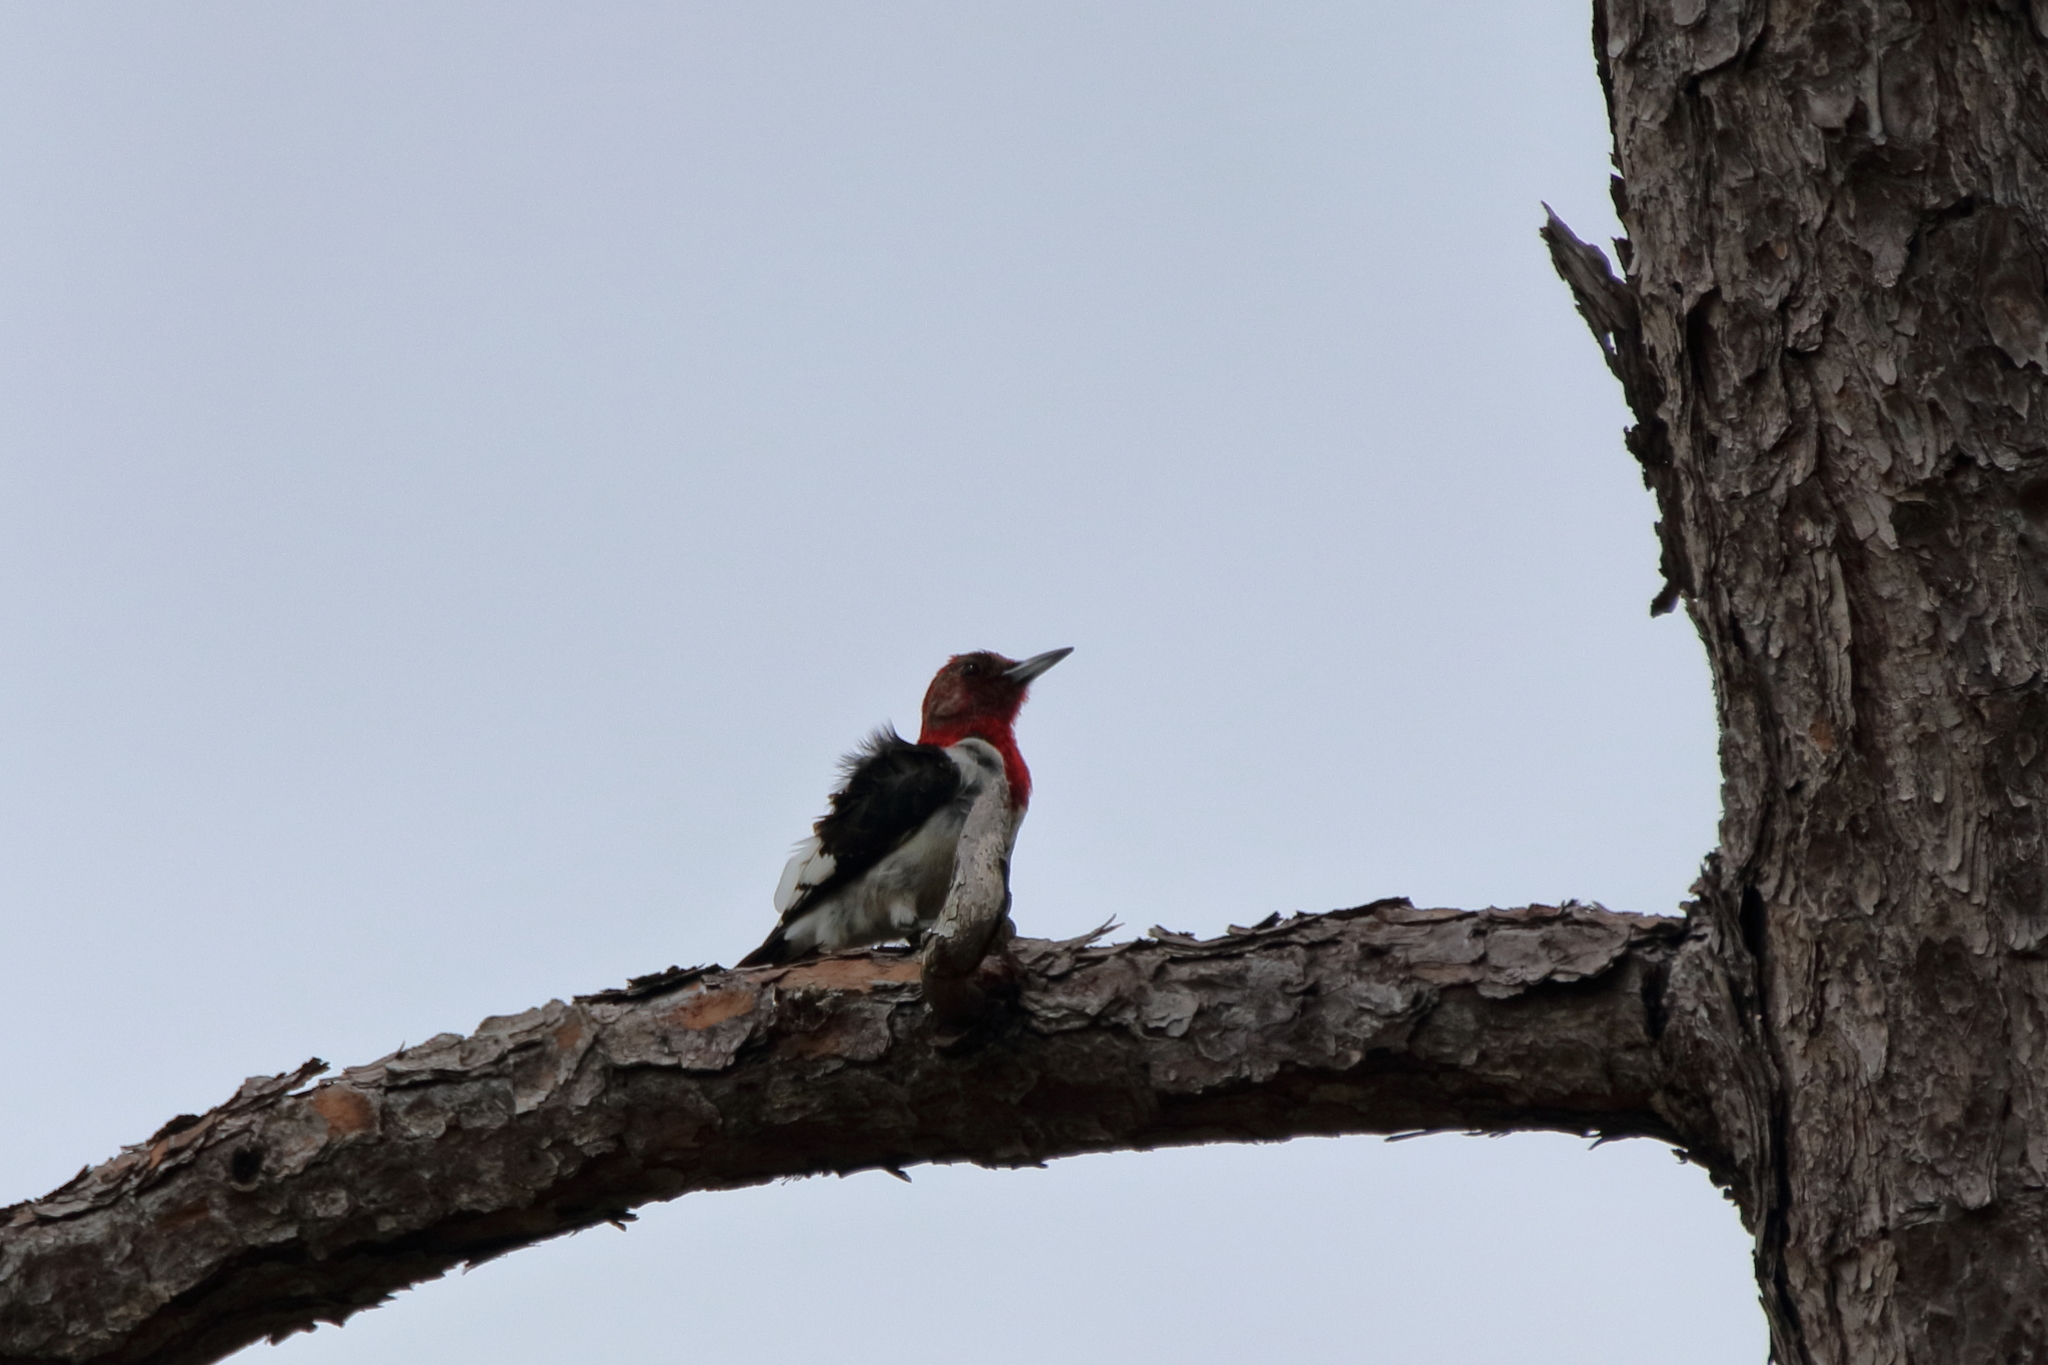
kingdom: Animalia
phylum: Chordata
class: Aves
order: Piciformes
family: Picidae
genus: Melanerpes
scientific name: Melanerpes erythrocephalus
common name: Red-headed woodpecker
